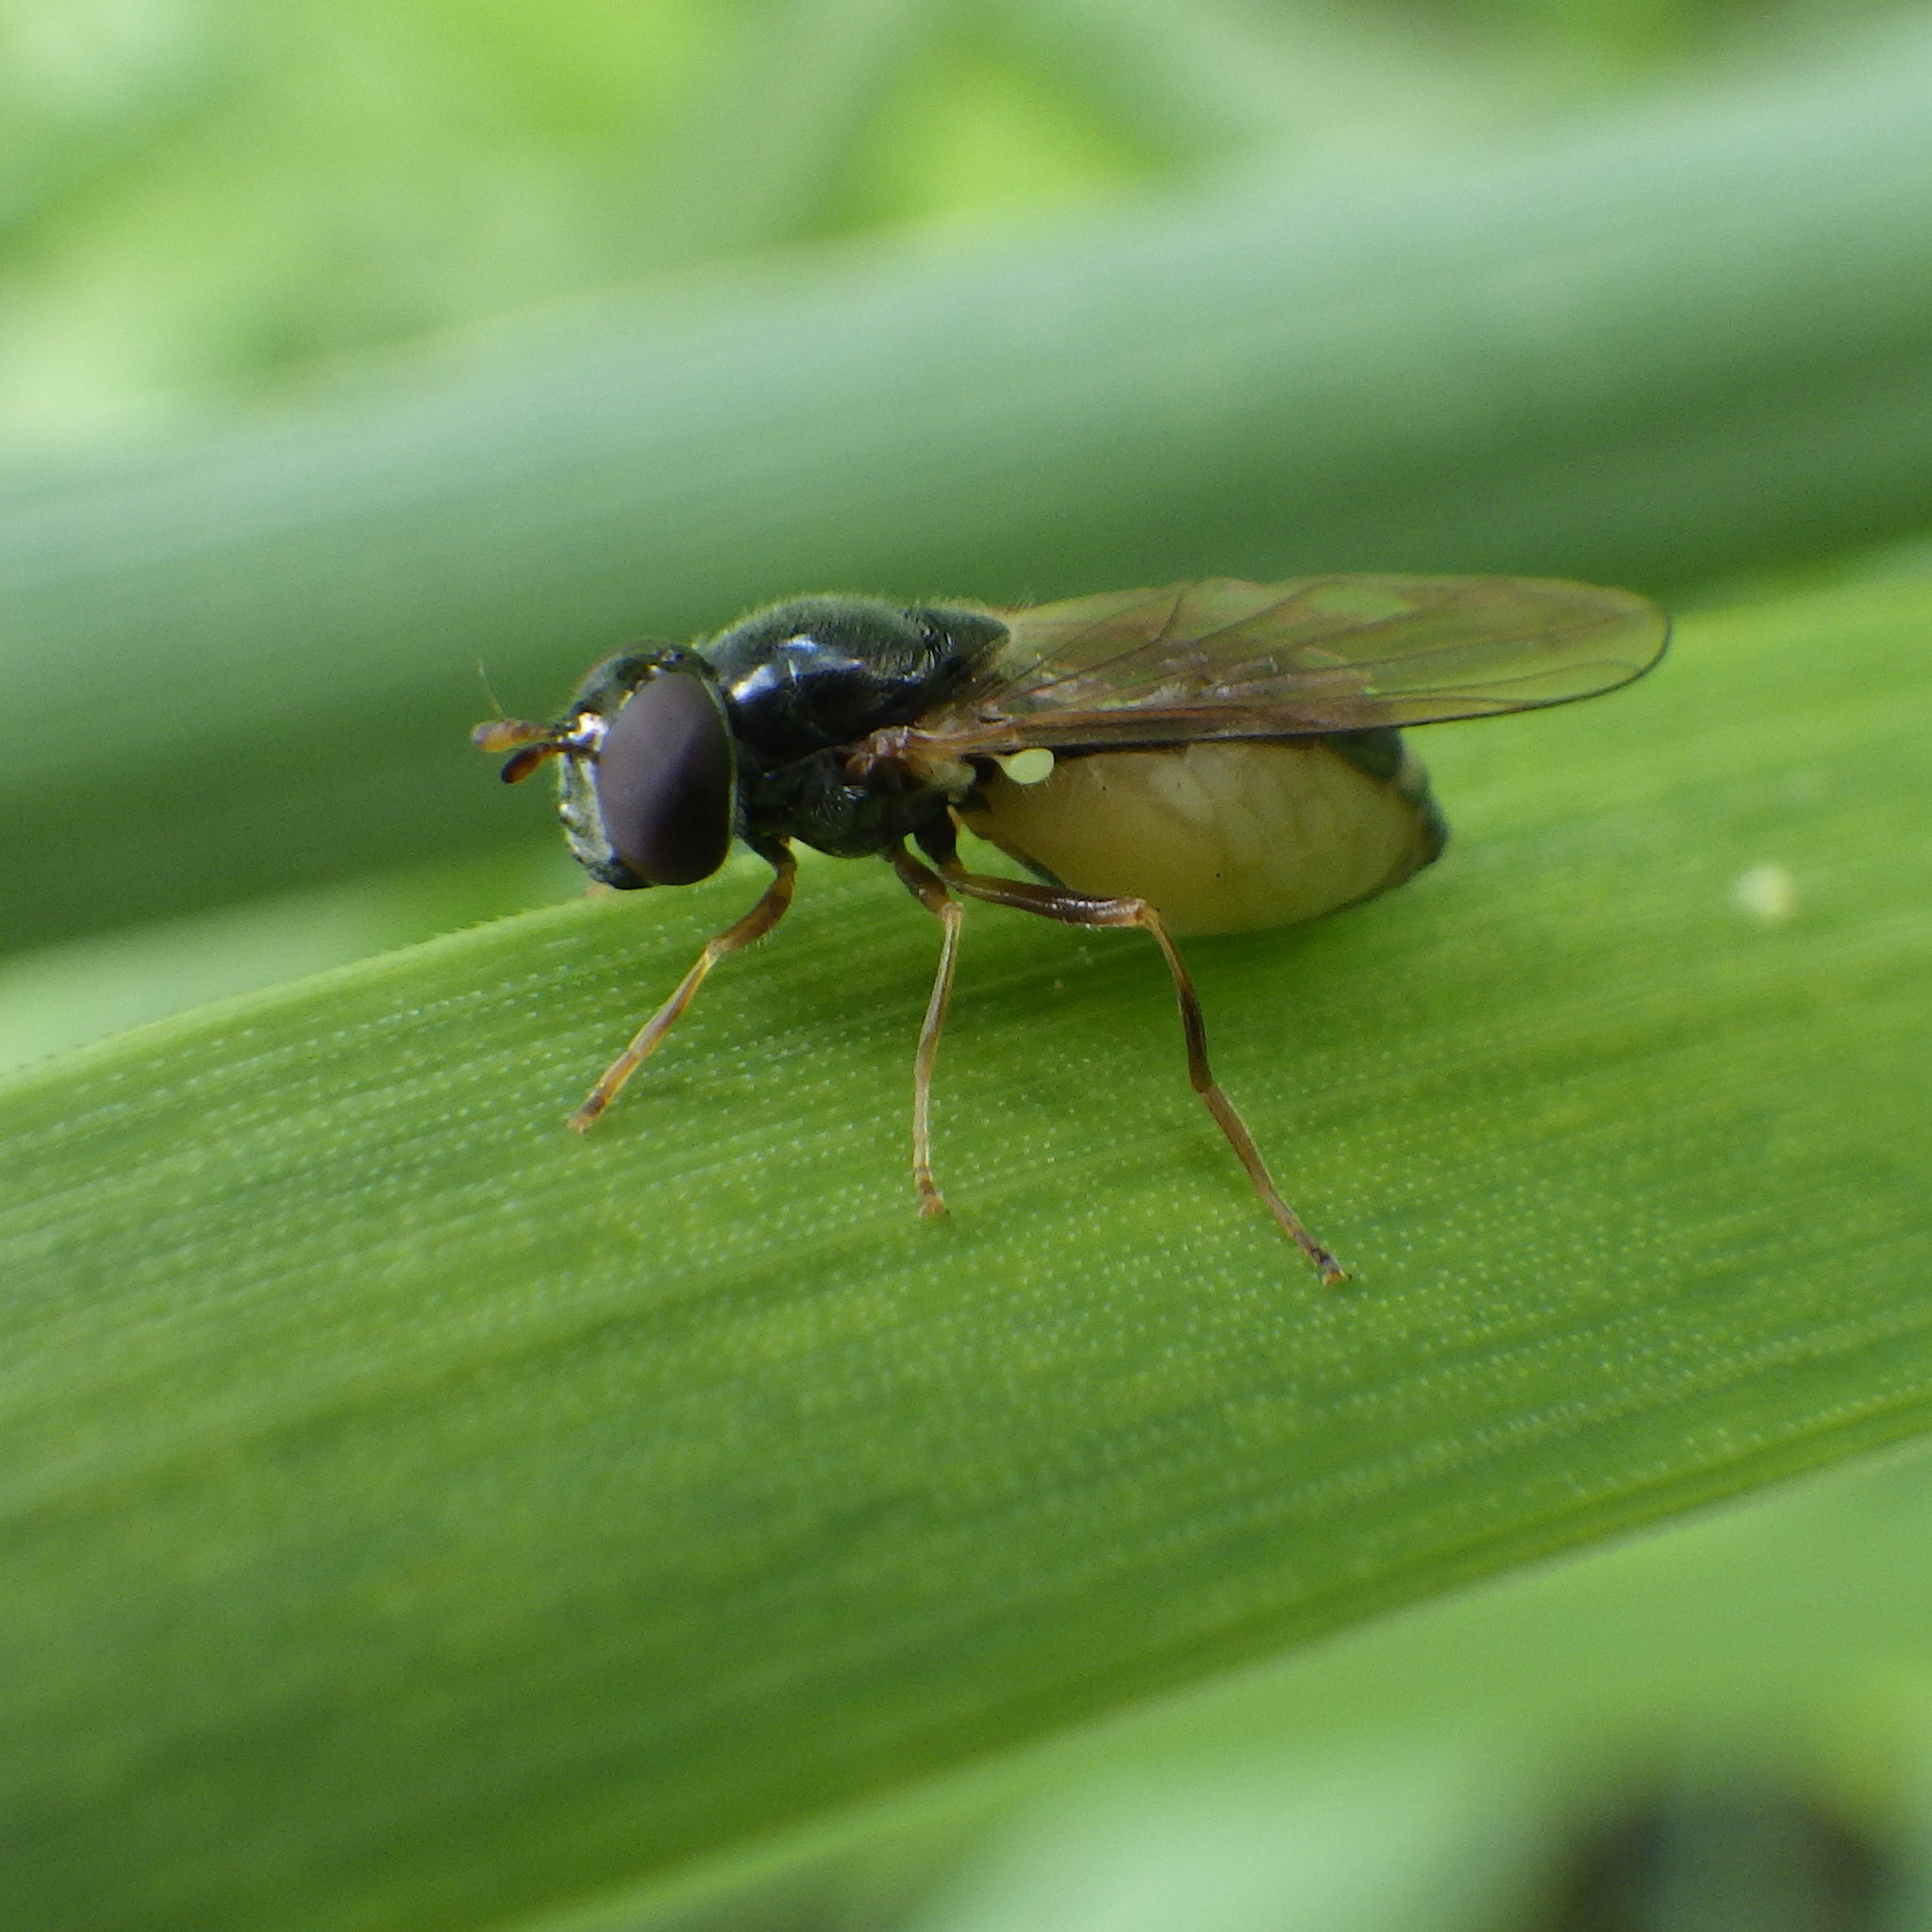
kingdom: Animalia
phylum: Arthropoda
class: Insecta
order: Diptera
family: Syrphidae
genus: Melanostoma
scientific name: Melanostoma mellina
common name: Hover fly
